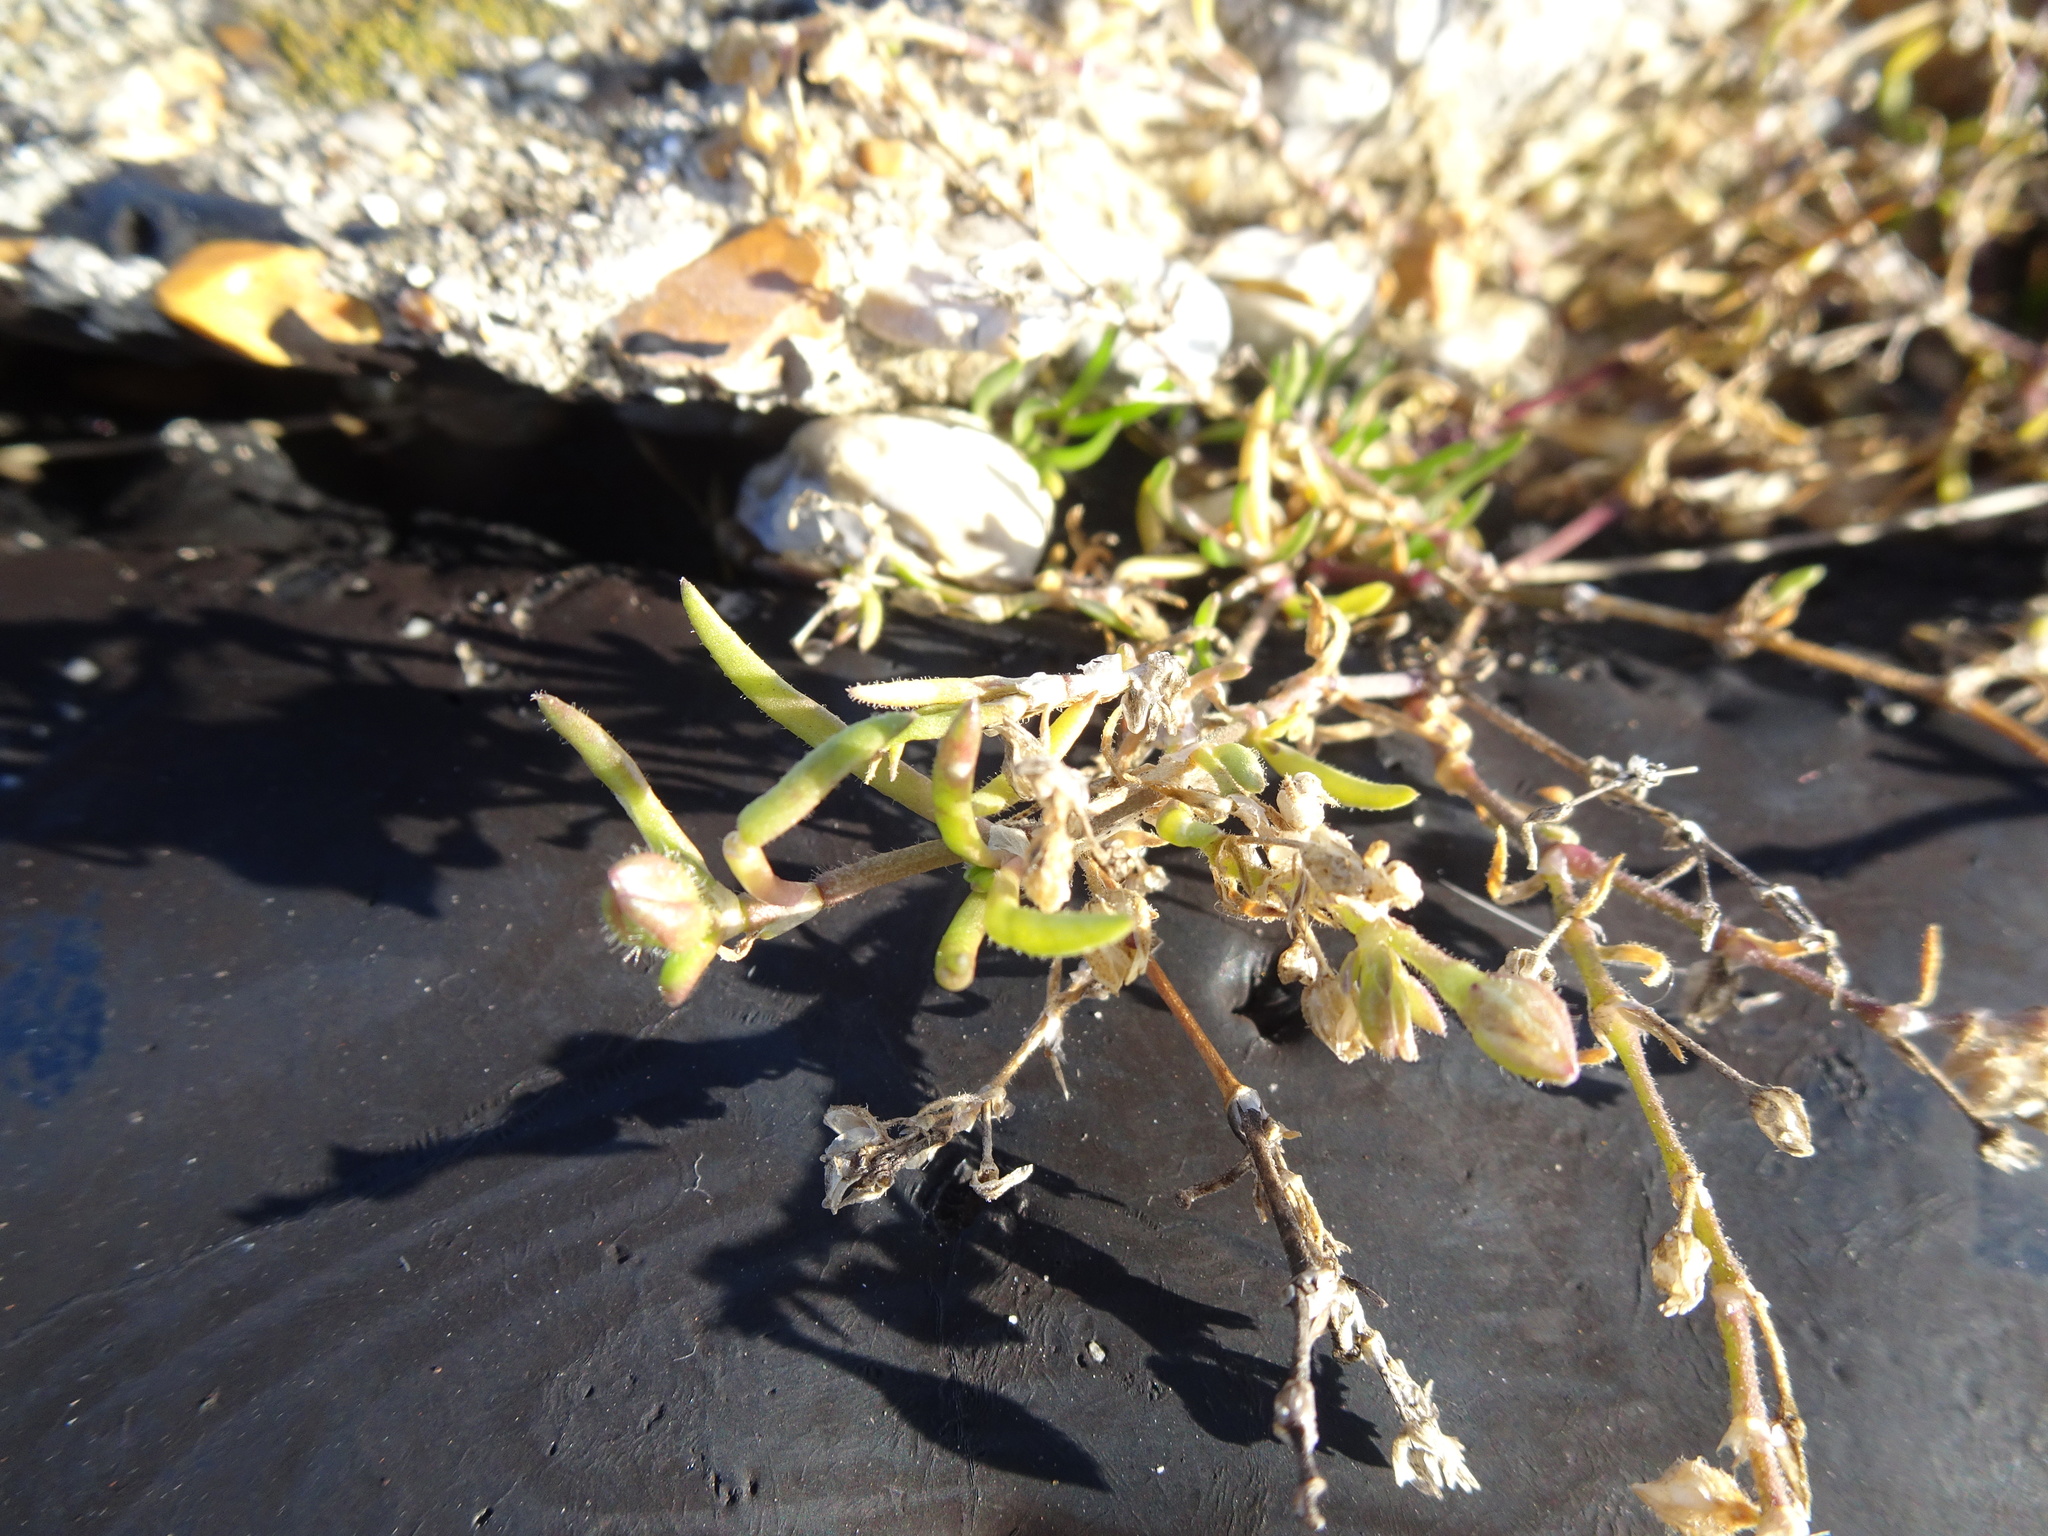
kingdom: Plantae
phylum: Tracheophyta
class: Magnoliopsida
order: Caryophyllales
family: Caryophyllaceae
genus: Spergularia
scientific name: Spergularia marina
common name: Lesser sea-spurrey
